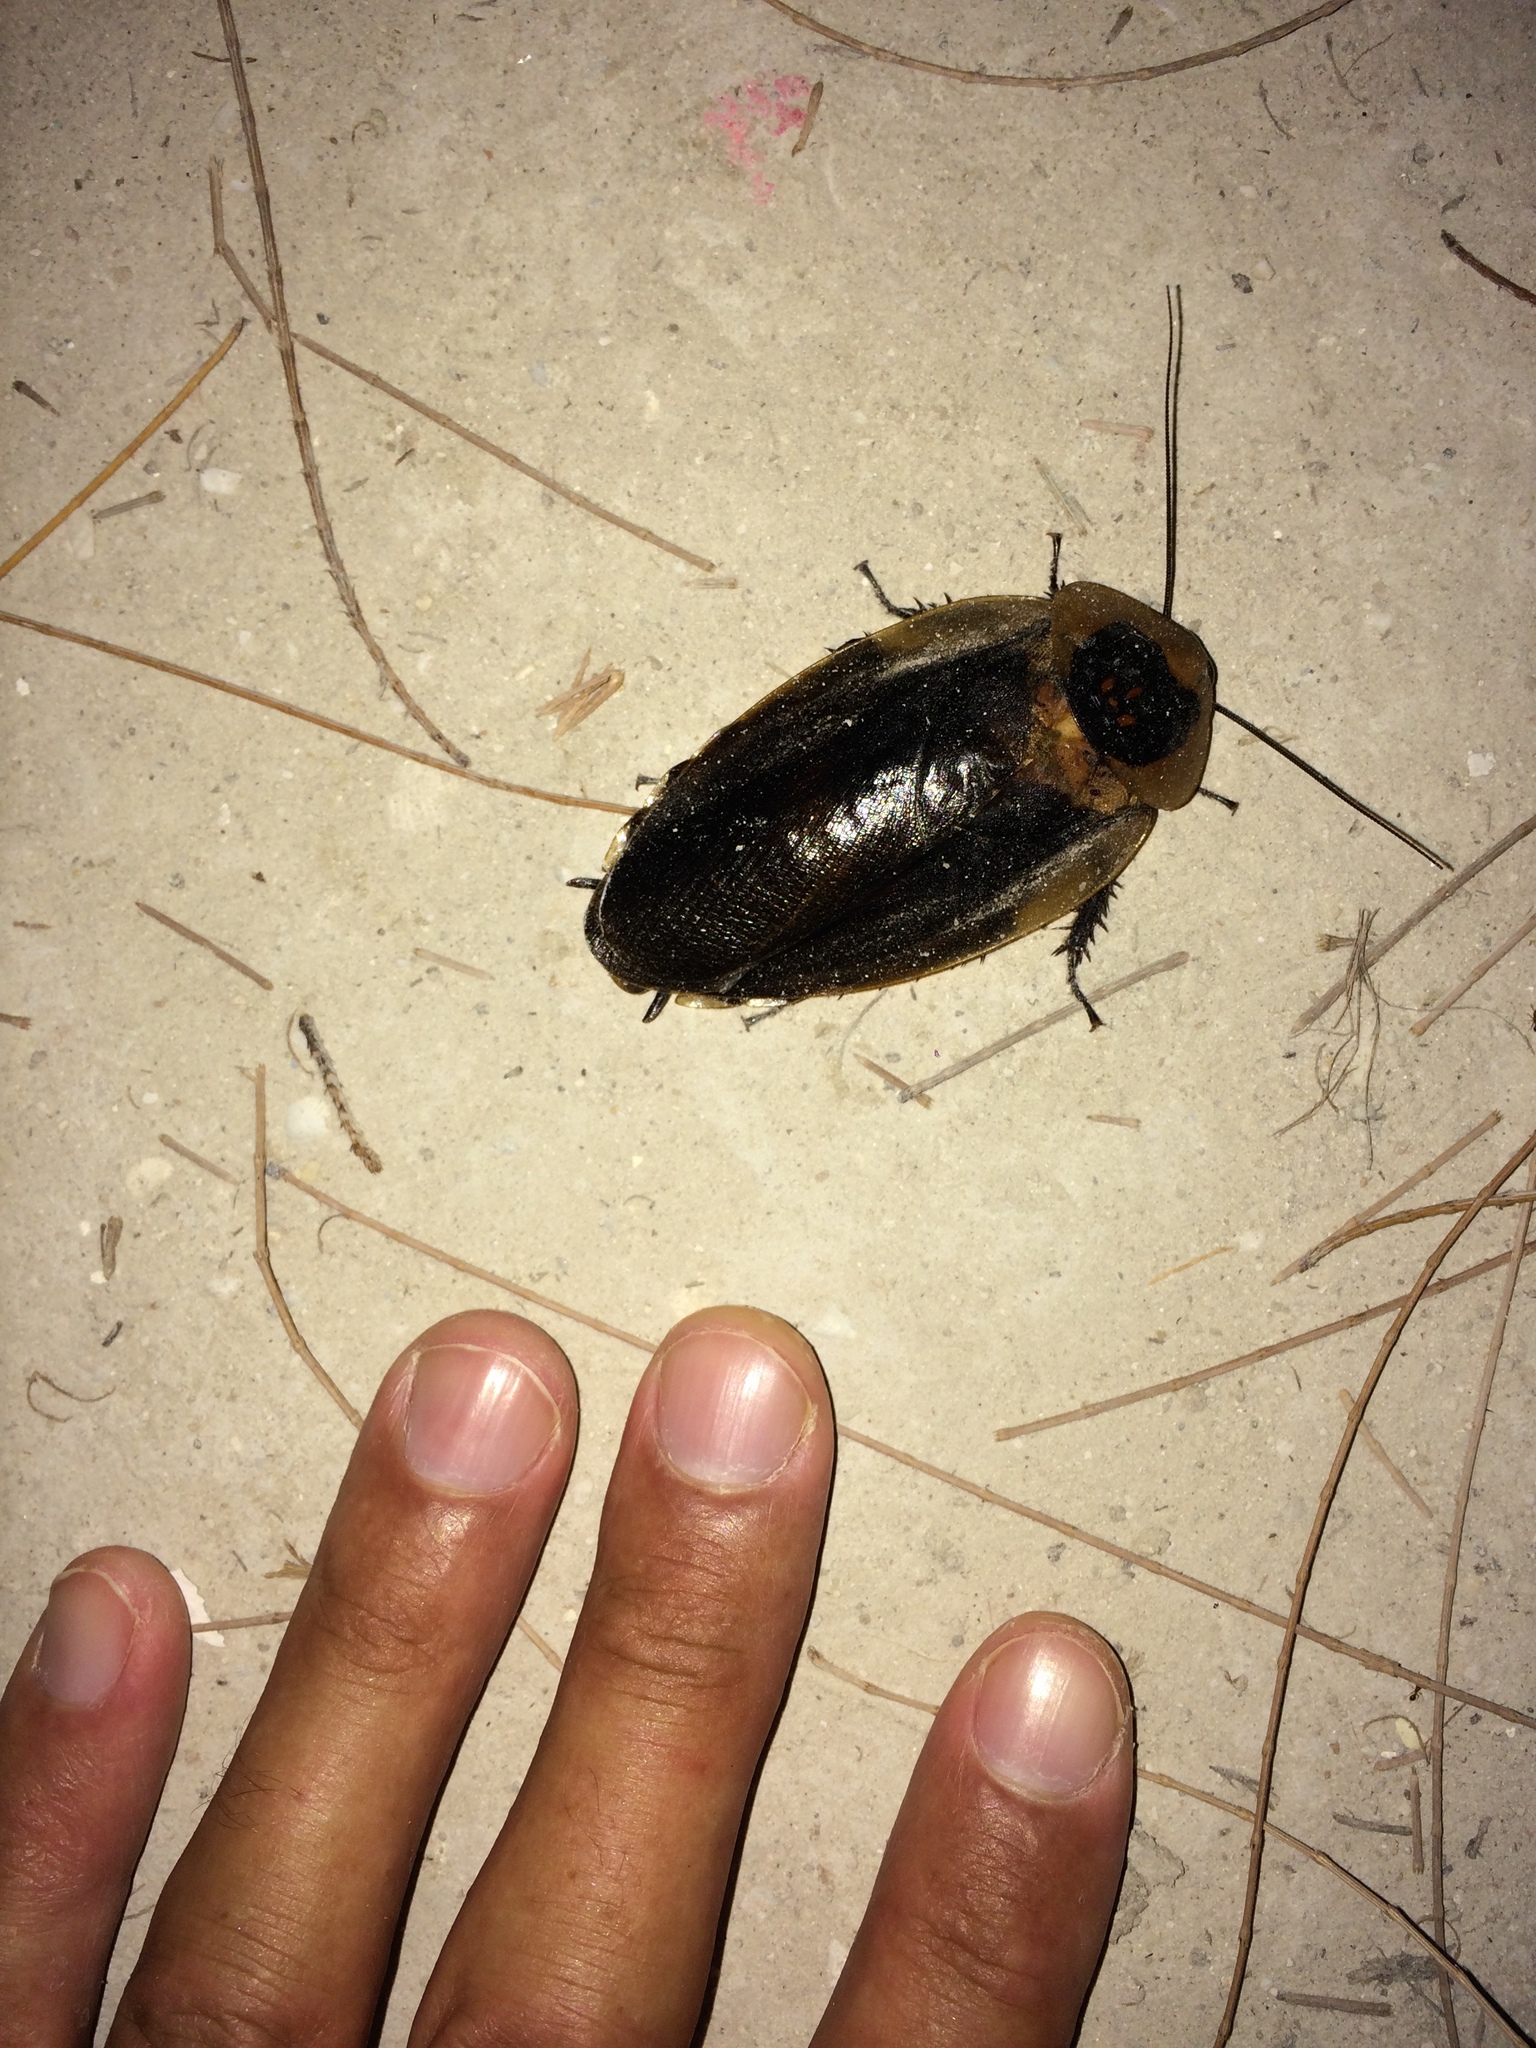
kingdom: Animalia
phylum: Arthropoda
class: Insecta
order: Blattodea
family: Blaberidae
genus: Blaberus
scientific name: Blaberus craniifer
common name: Death's head cockroach
